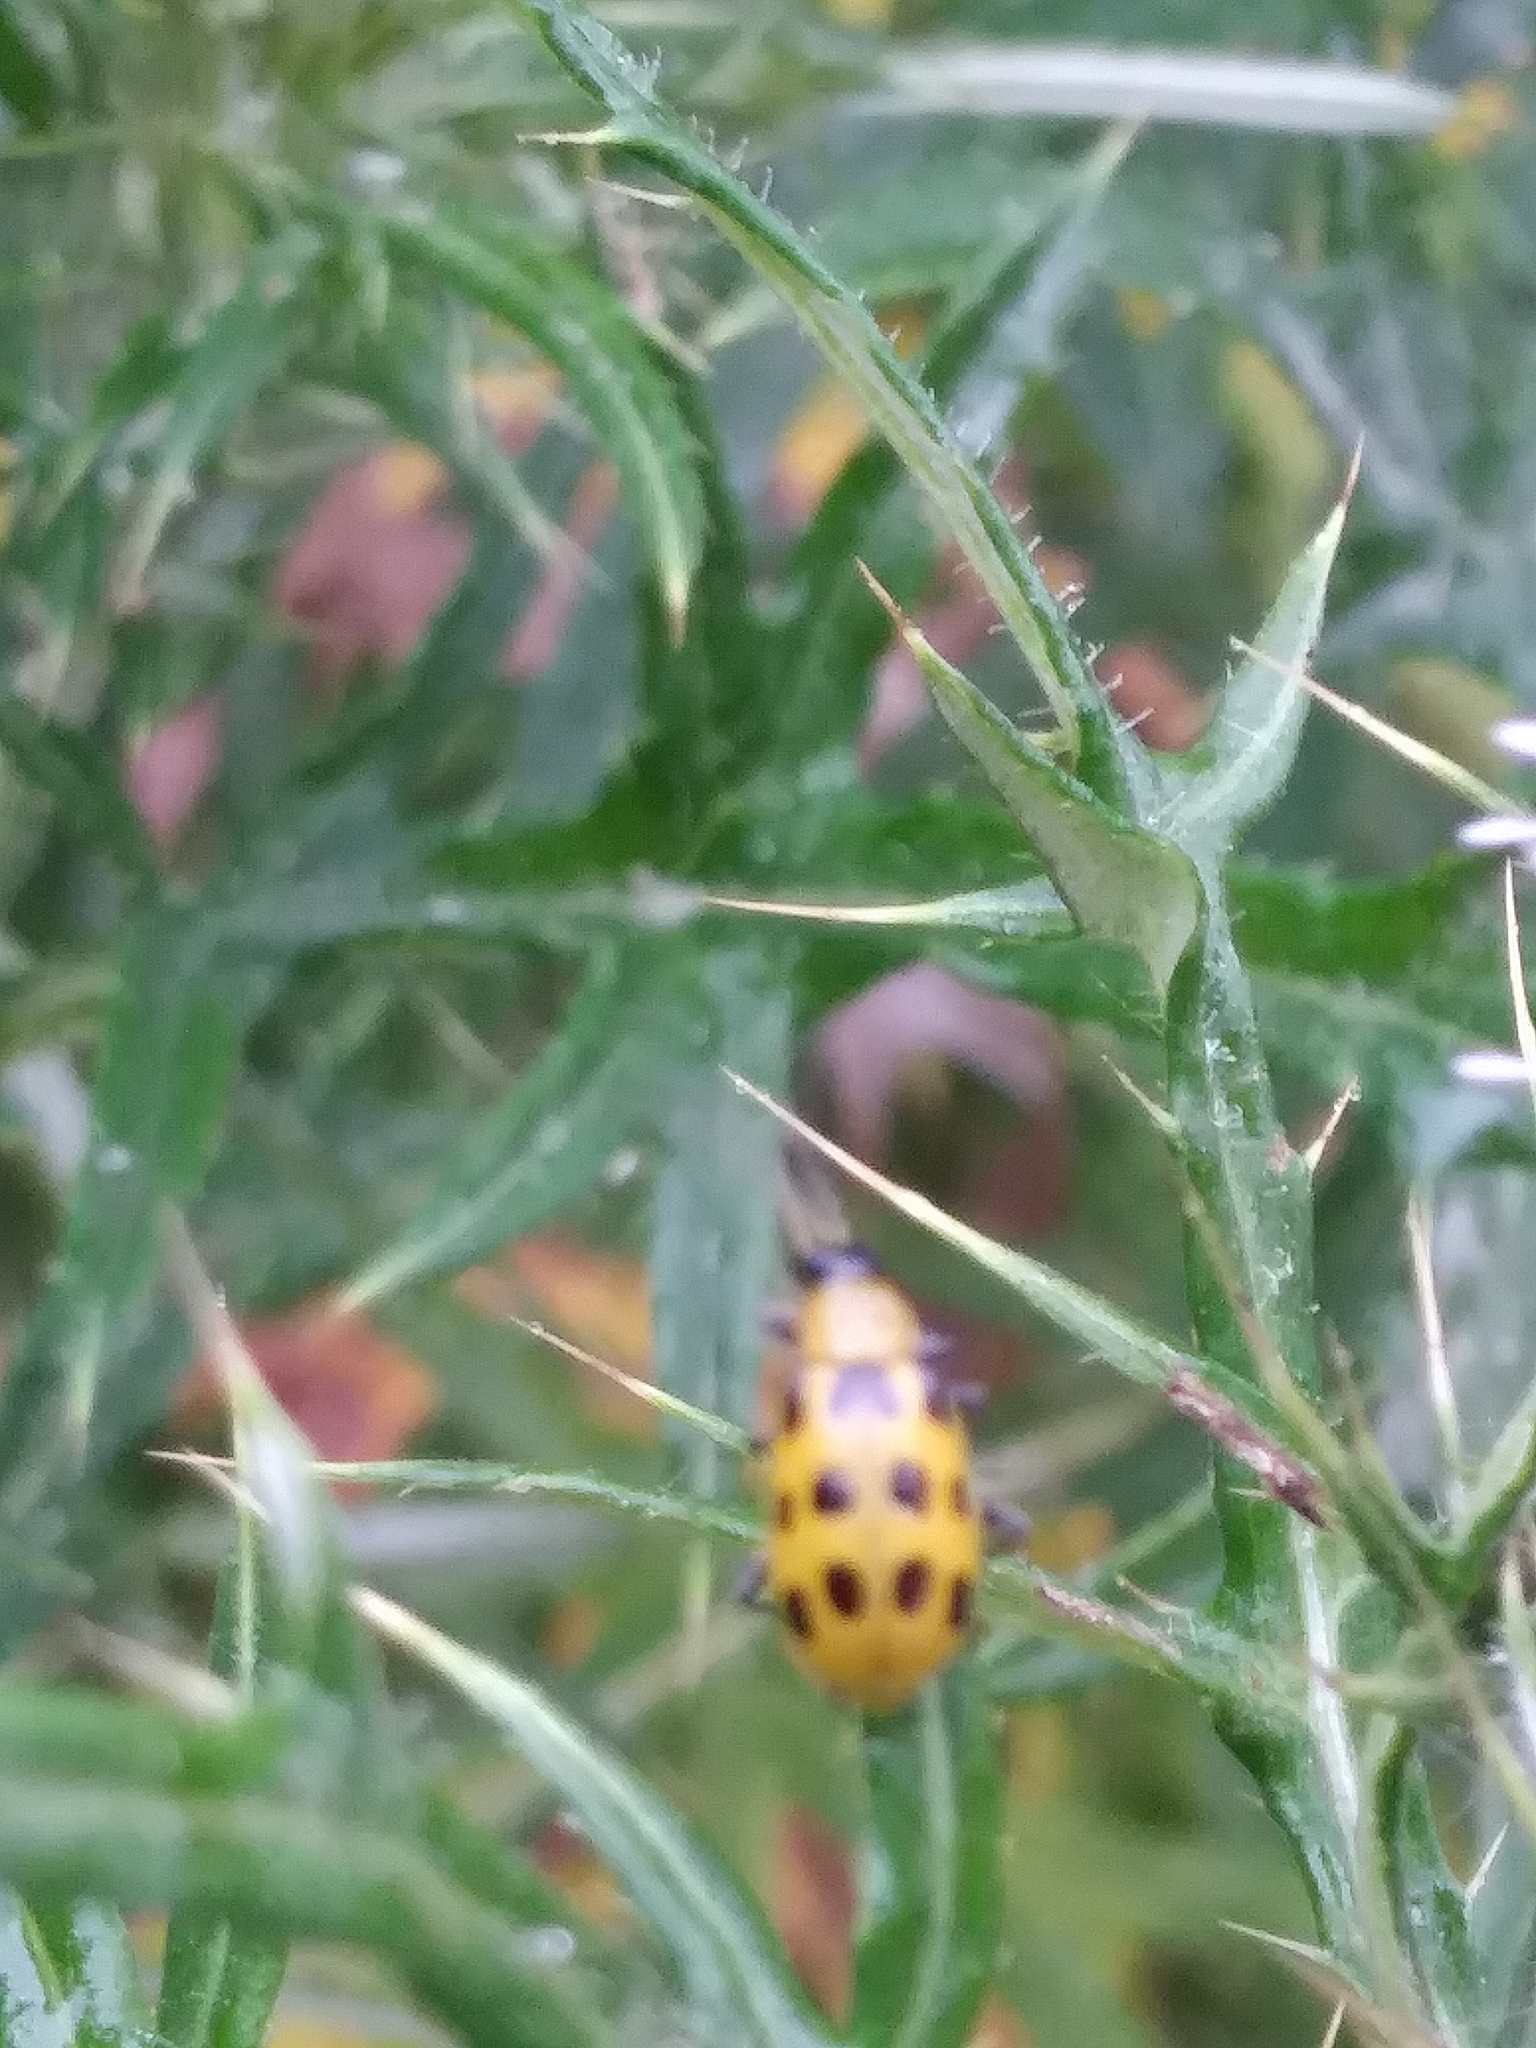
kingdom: Animalia
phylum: Arthropoda
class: Insecta
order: Coleoptera
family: Chrysomelidae
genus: Diabrotica
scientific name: Diabrotica undecimpunctata
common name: Spotted cucumber beetle
